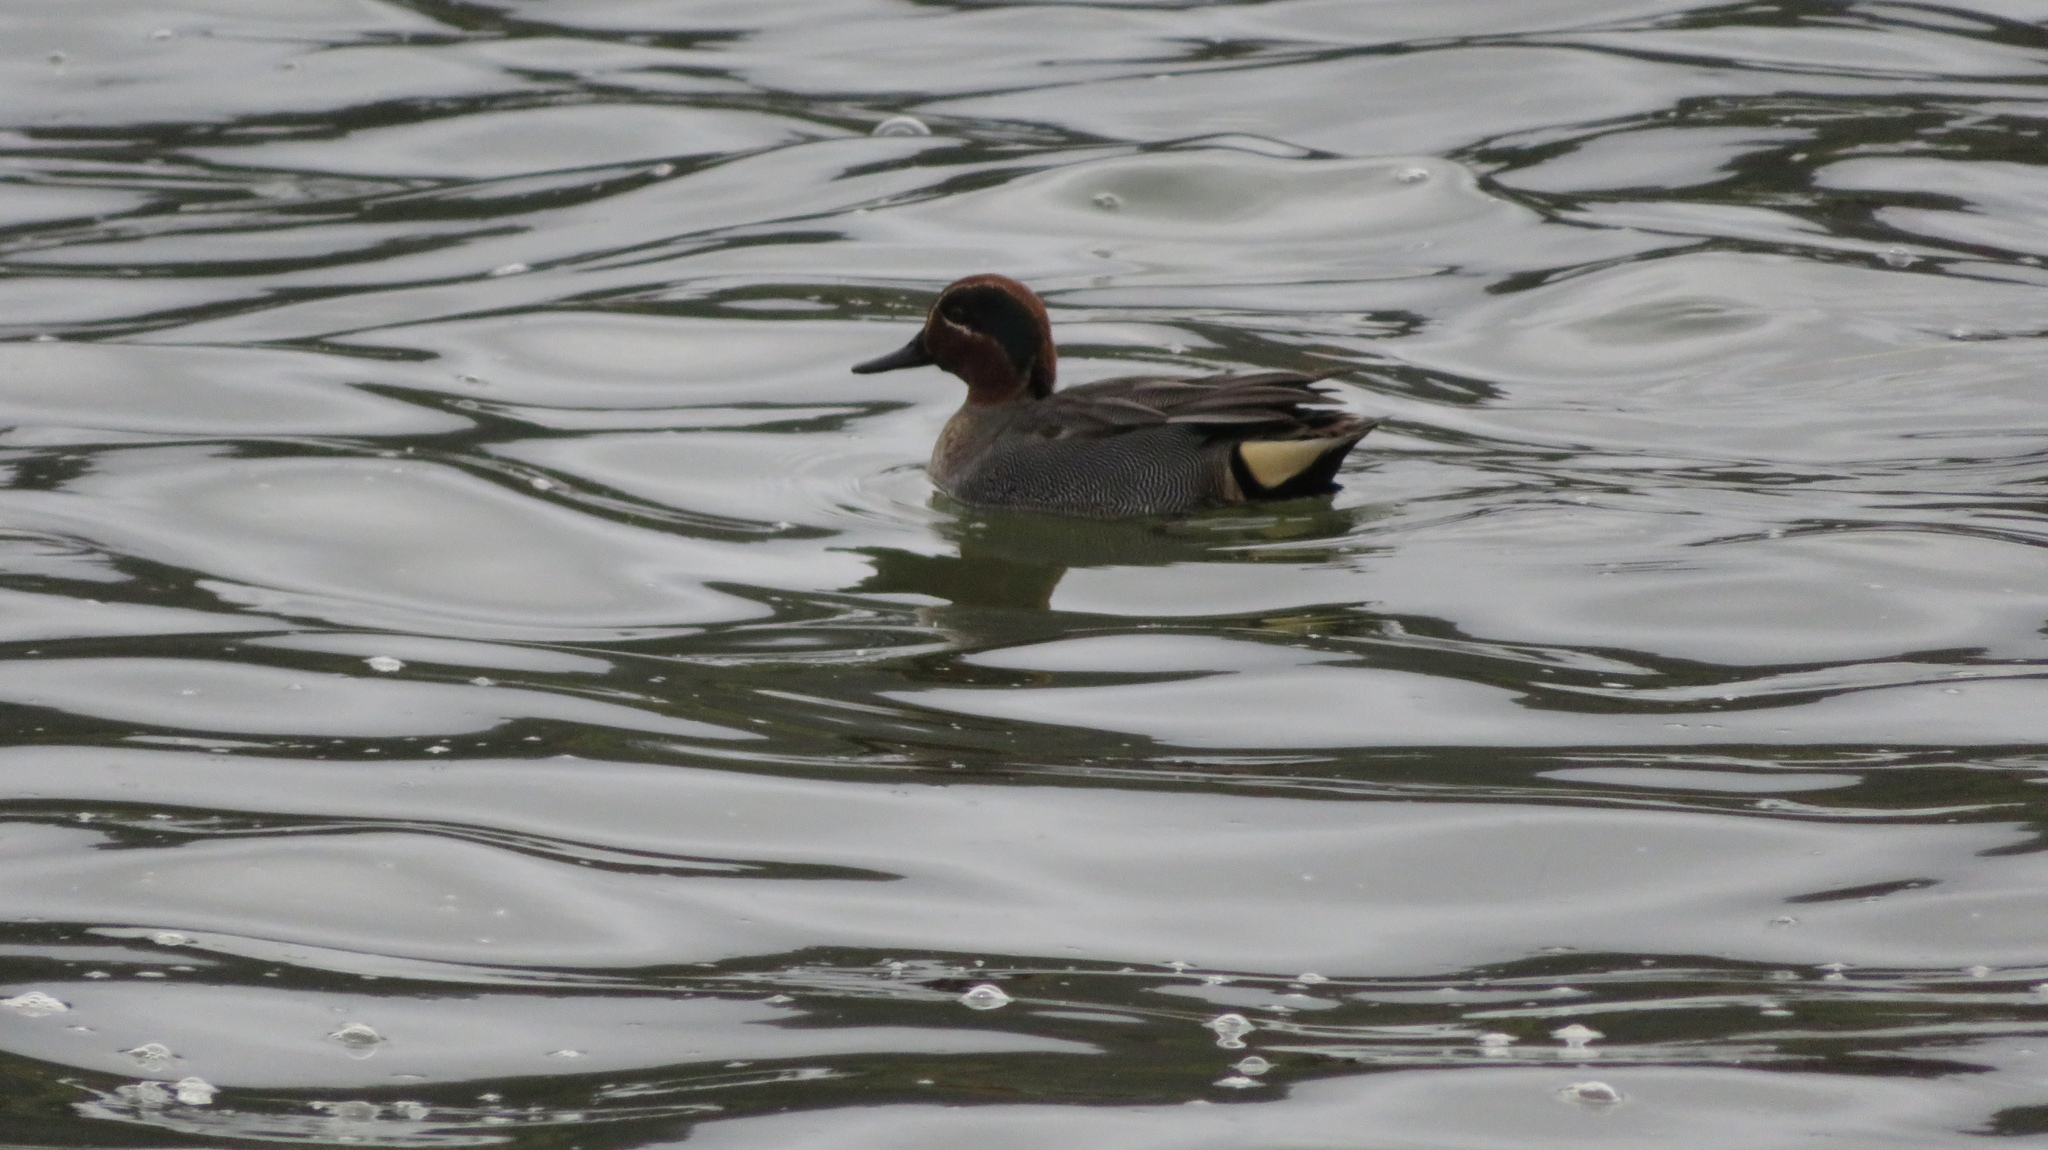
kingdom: Animalia
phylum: Chordata
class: Aves
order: Anseriformes
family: Anatidae
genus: Anas
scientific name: Anas crecca
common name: Eurasian teal
